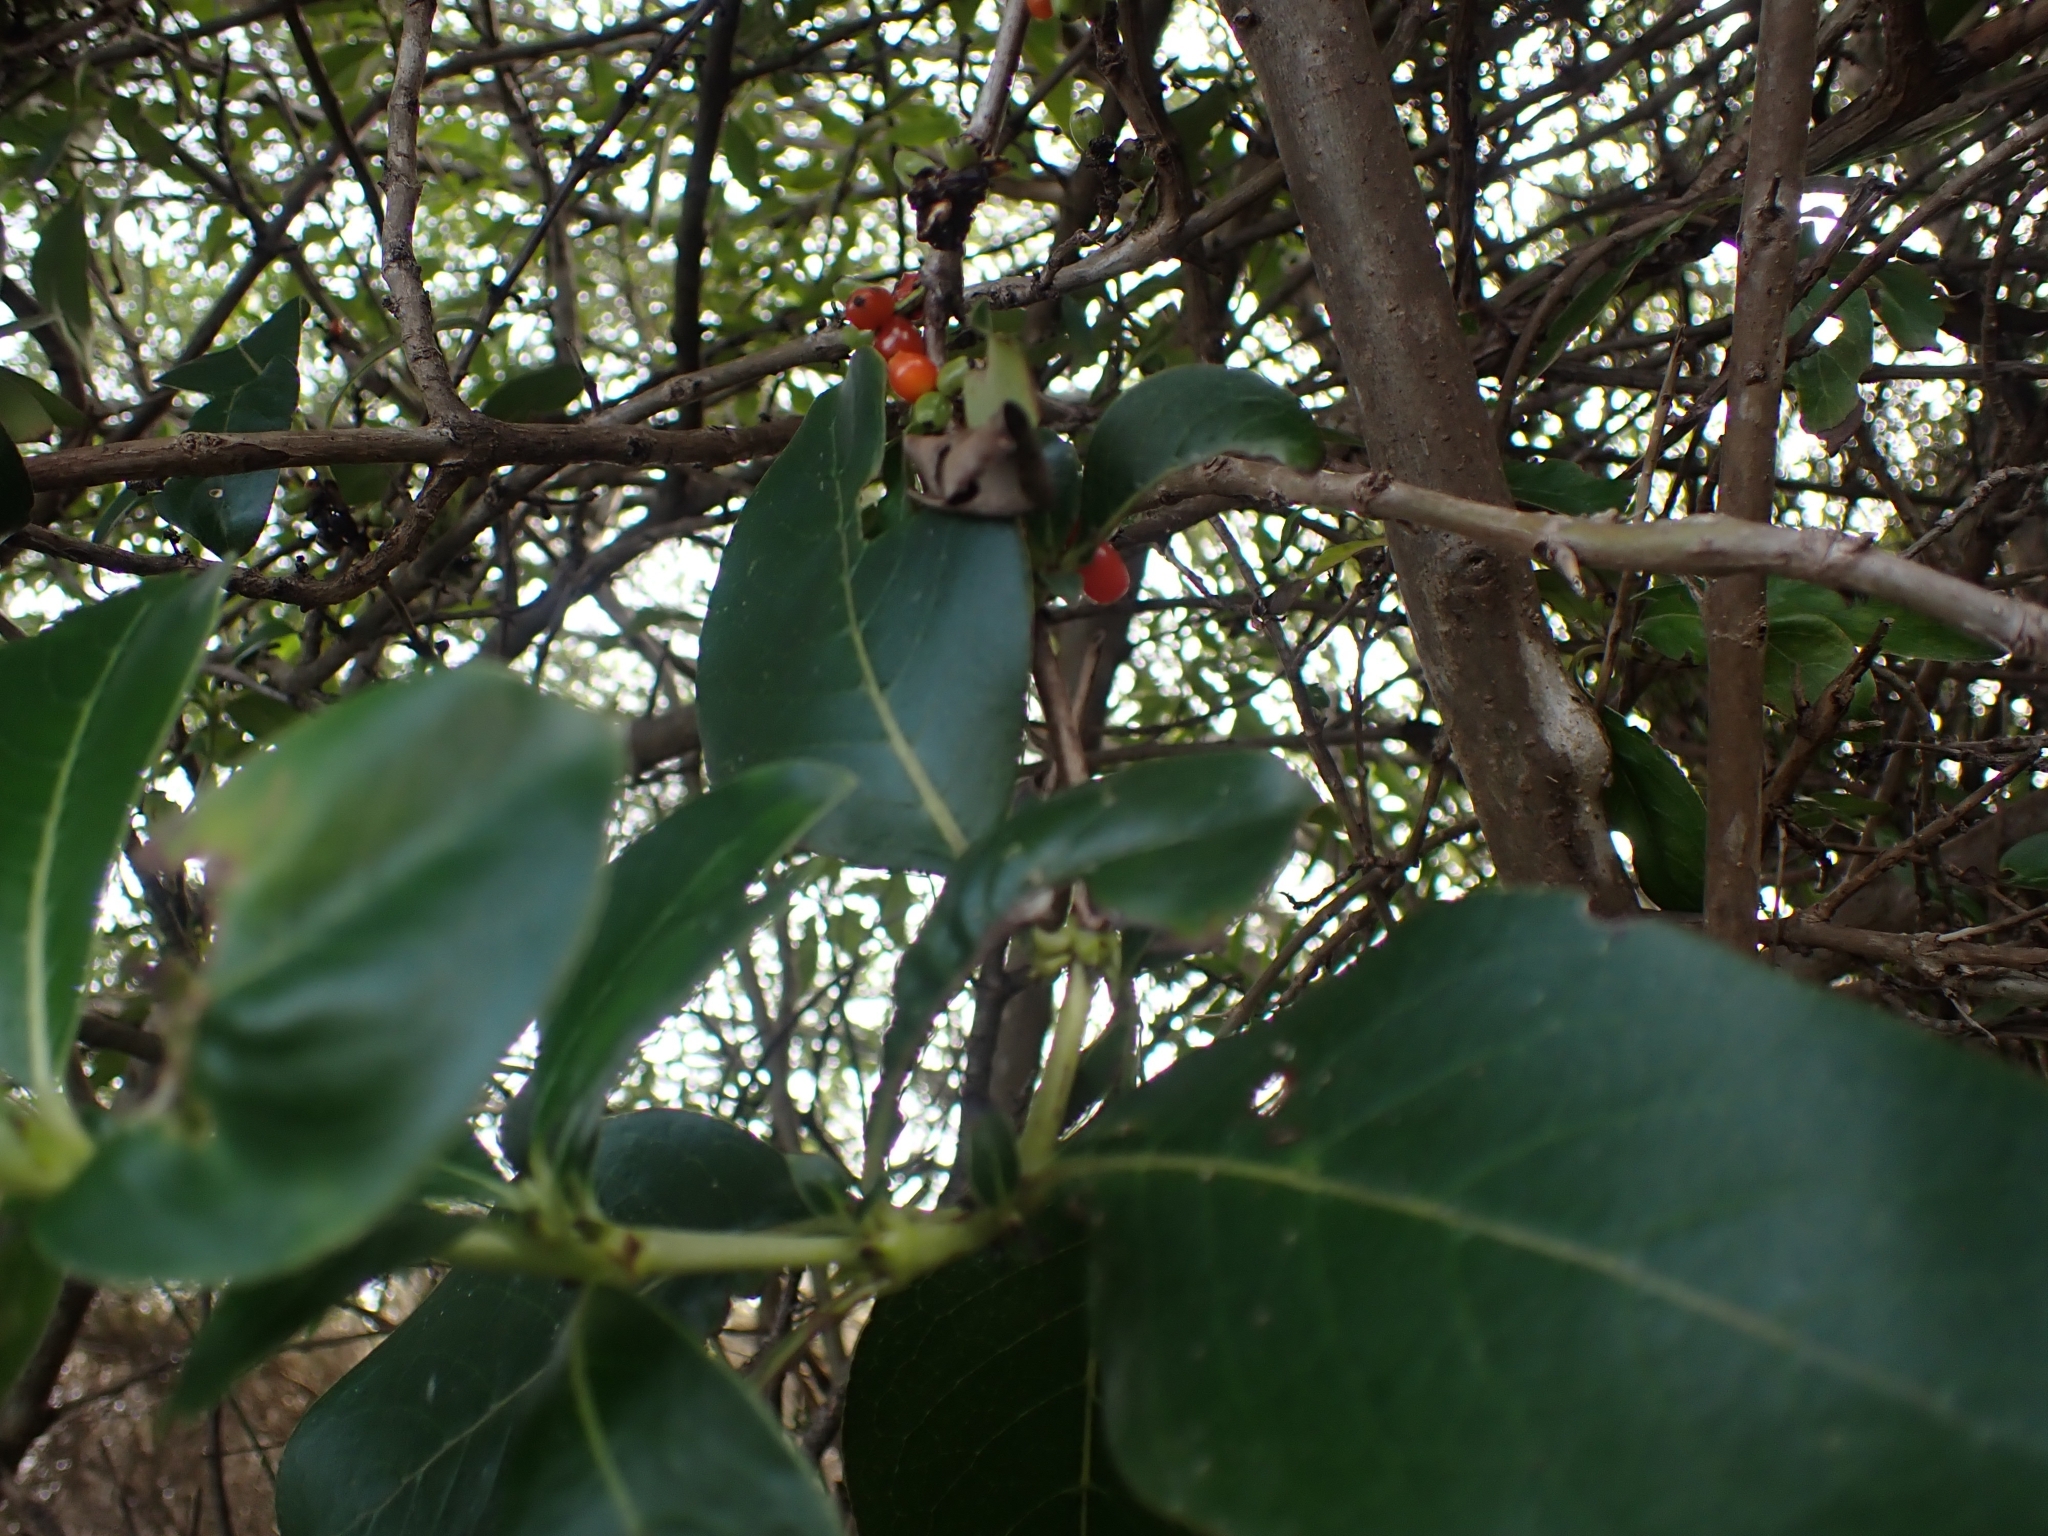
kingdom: Plantae
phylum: Tracheophyta
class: Magnoliopsida
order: Gentianales
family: Rubiaceae
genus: Coprosma
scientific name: Coprosma robusta
